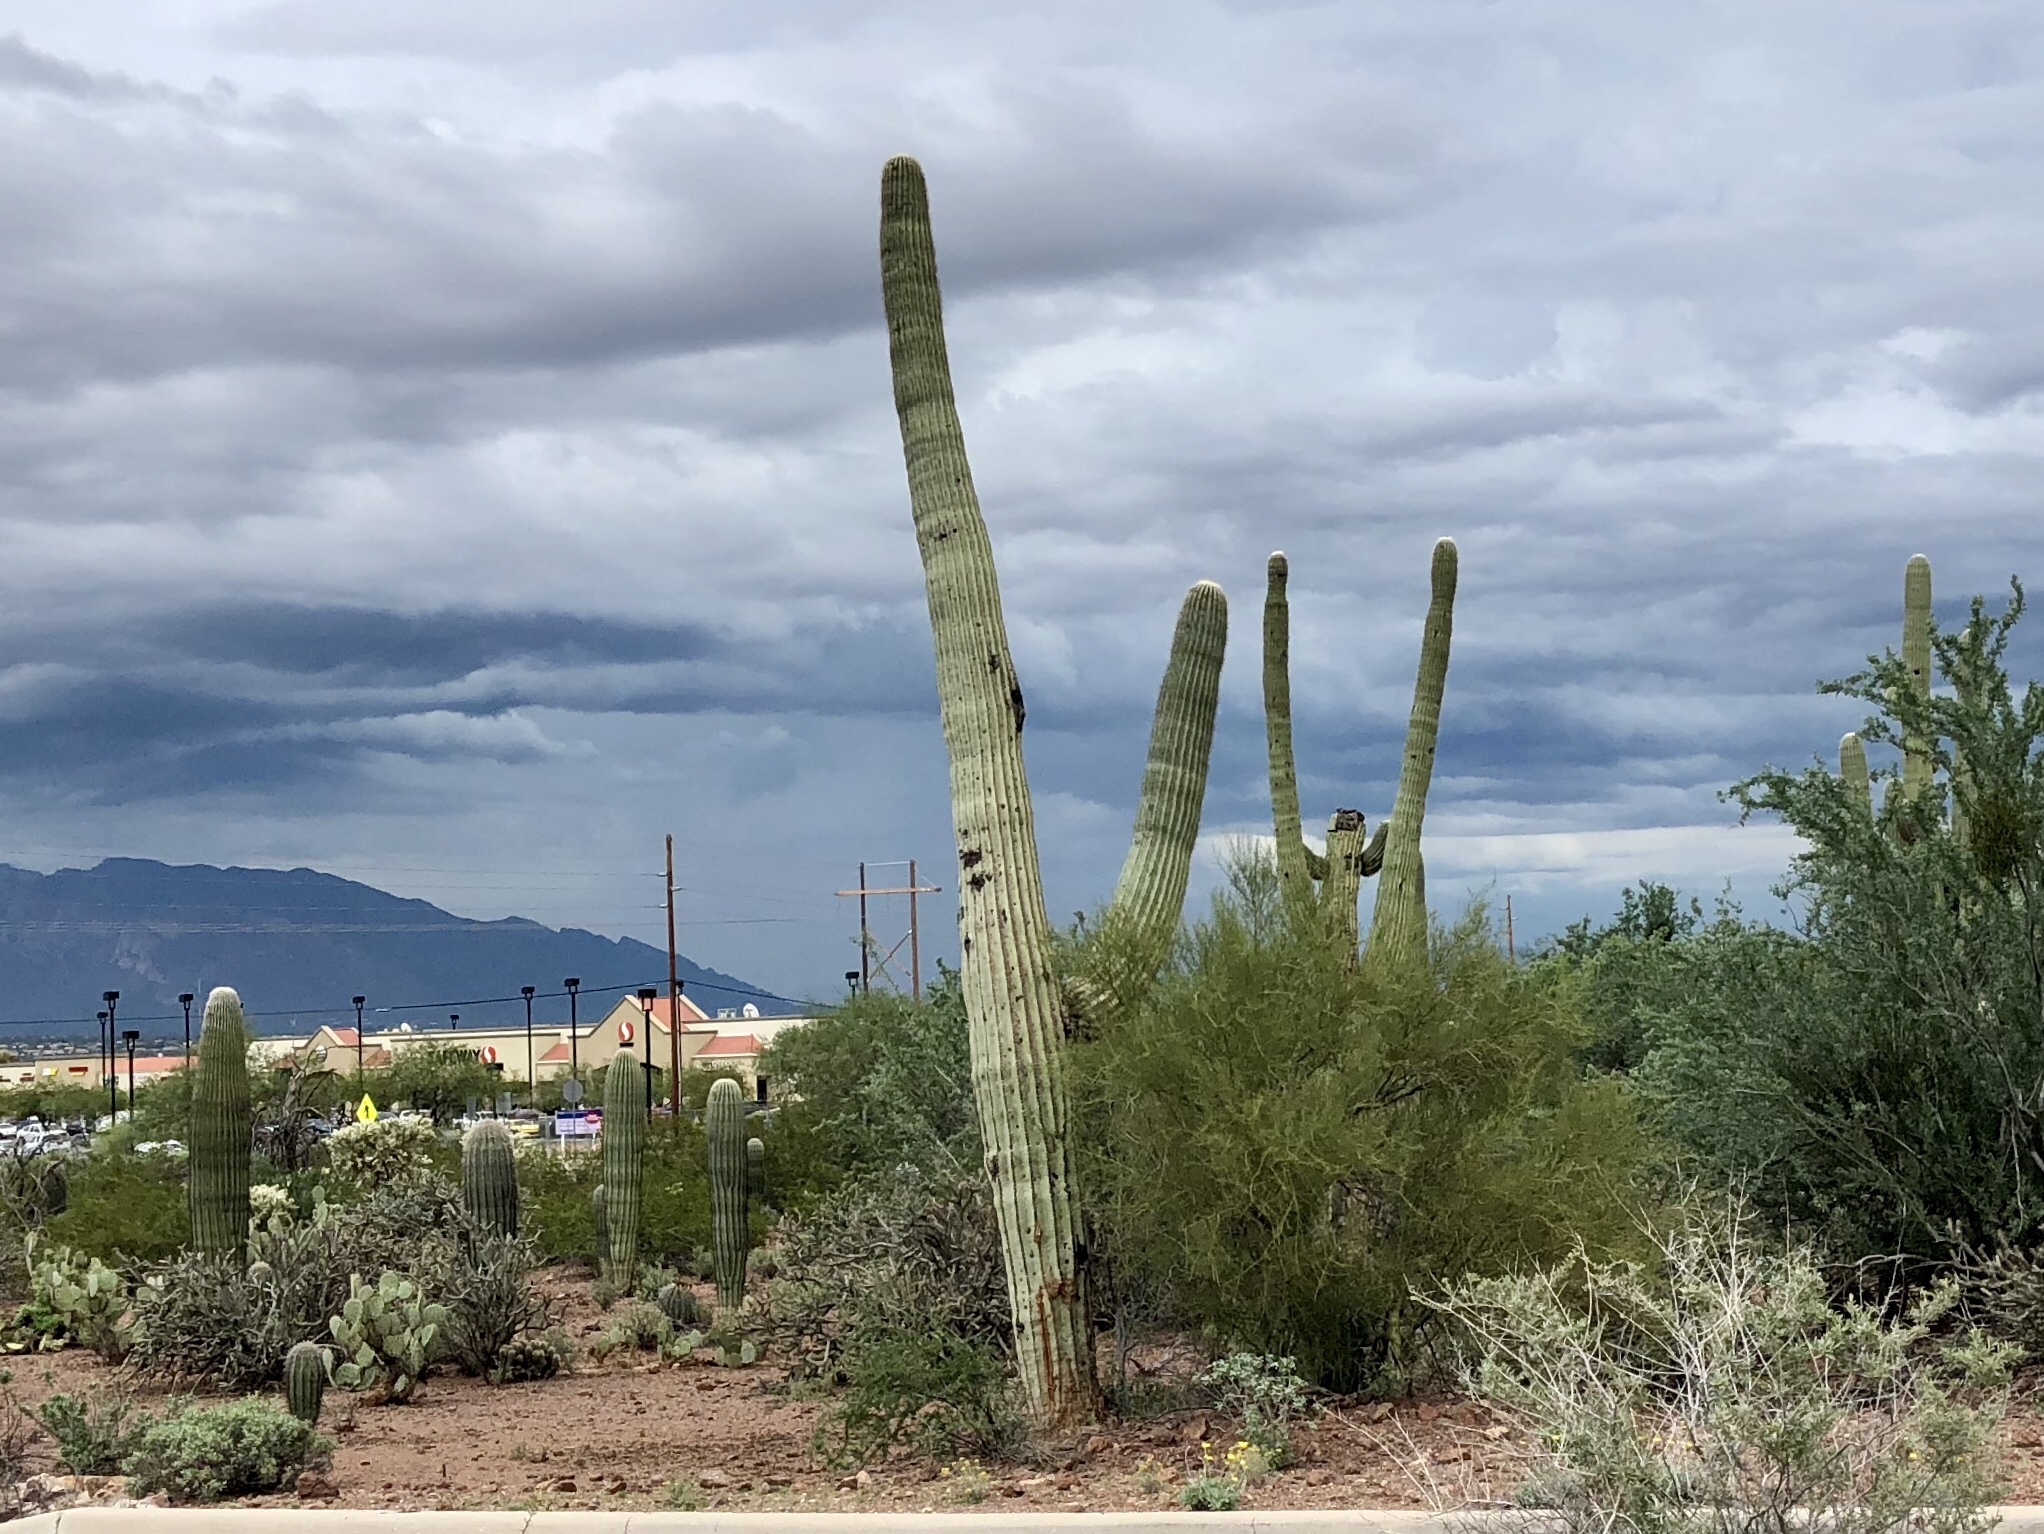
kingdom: Plantae
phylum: Tracheophyta
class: Magnoliopsida
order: Caryophyllales
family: Cactaceae
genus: Carnegiea
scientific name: Carnegiea gigantea
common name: Saguaro
